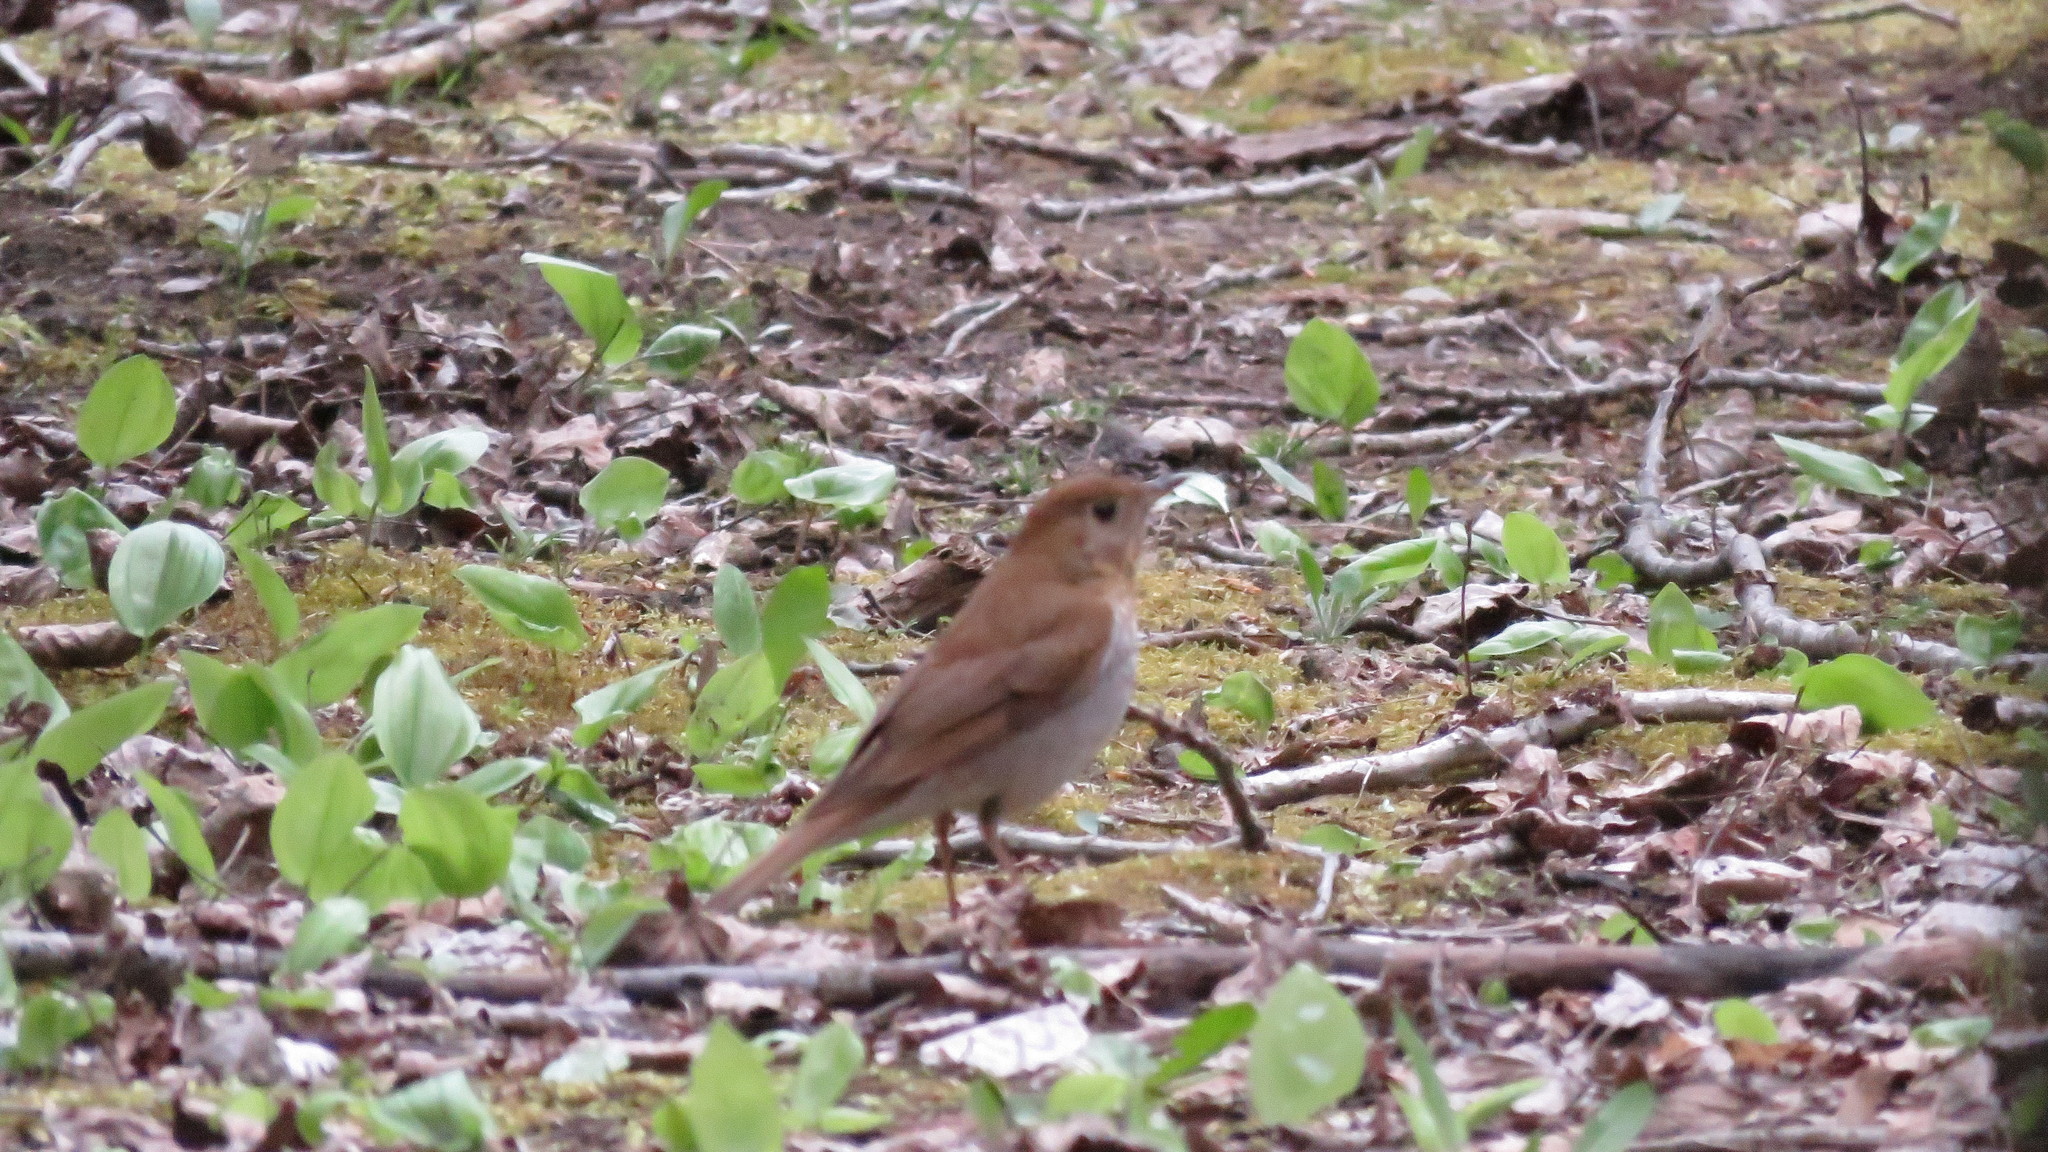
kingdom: Animalia
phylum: Chordata
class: Aves
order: Passeriformes
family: Turdidae
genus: Catharus
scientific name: Catharus fuscescens
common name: Veery
